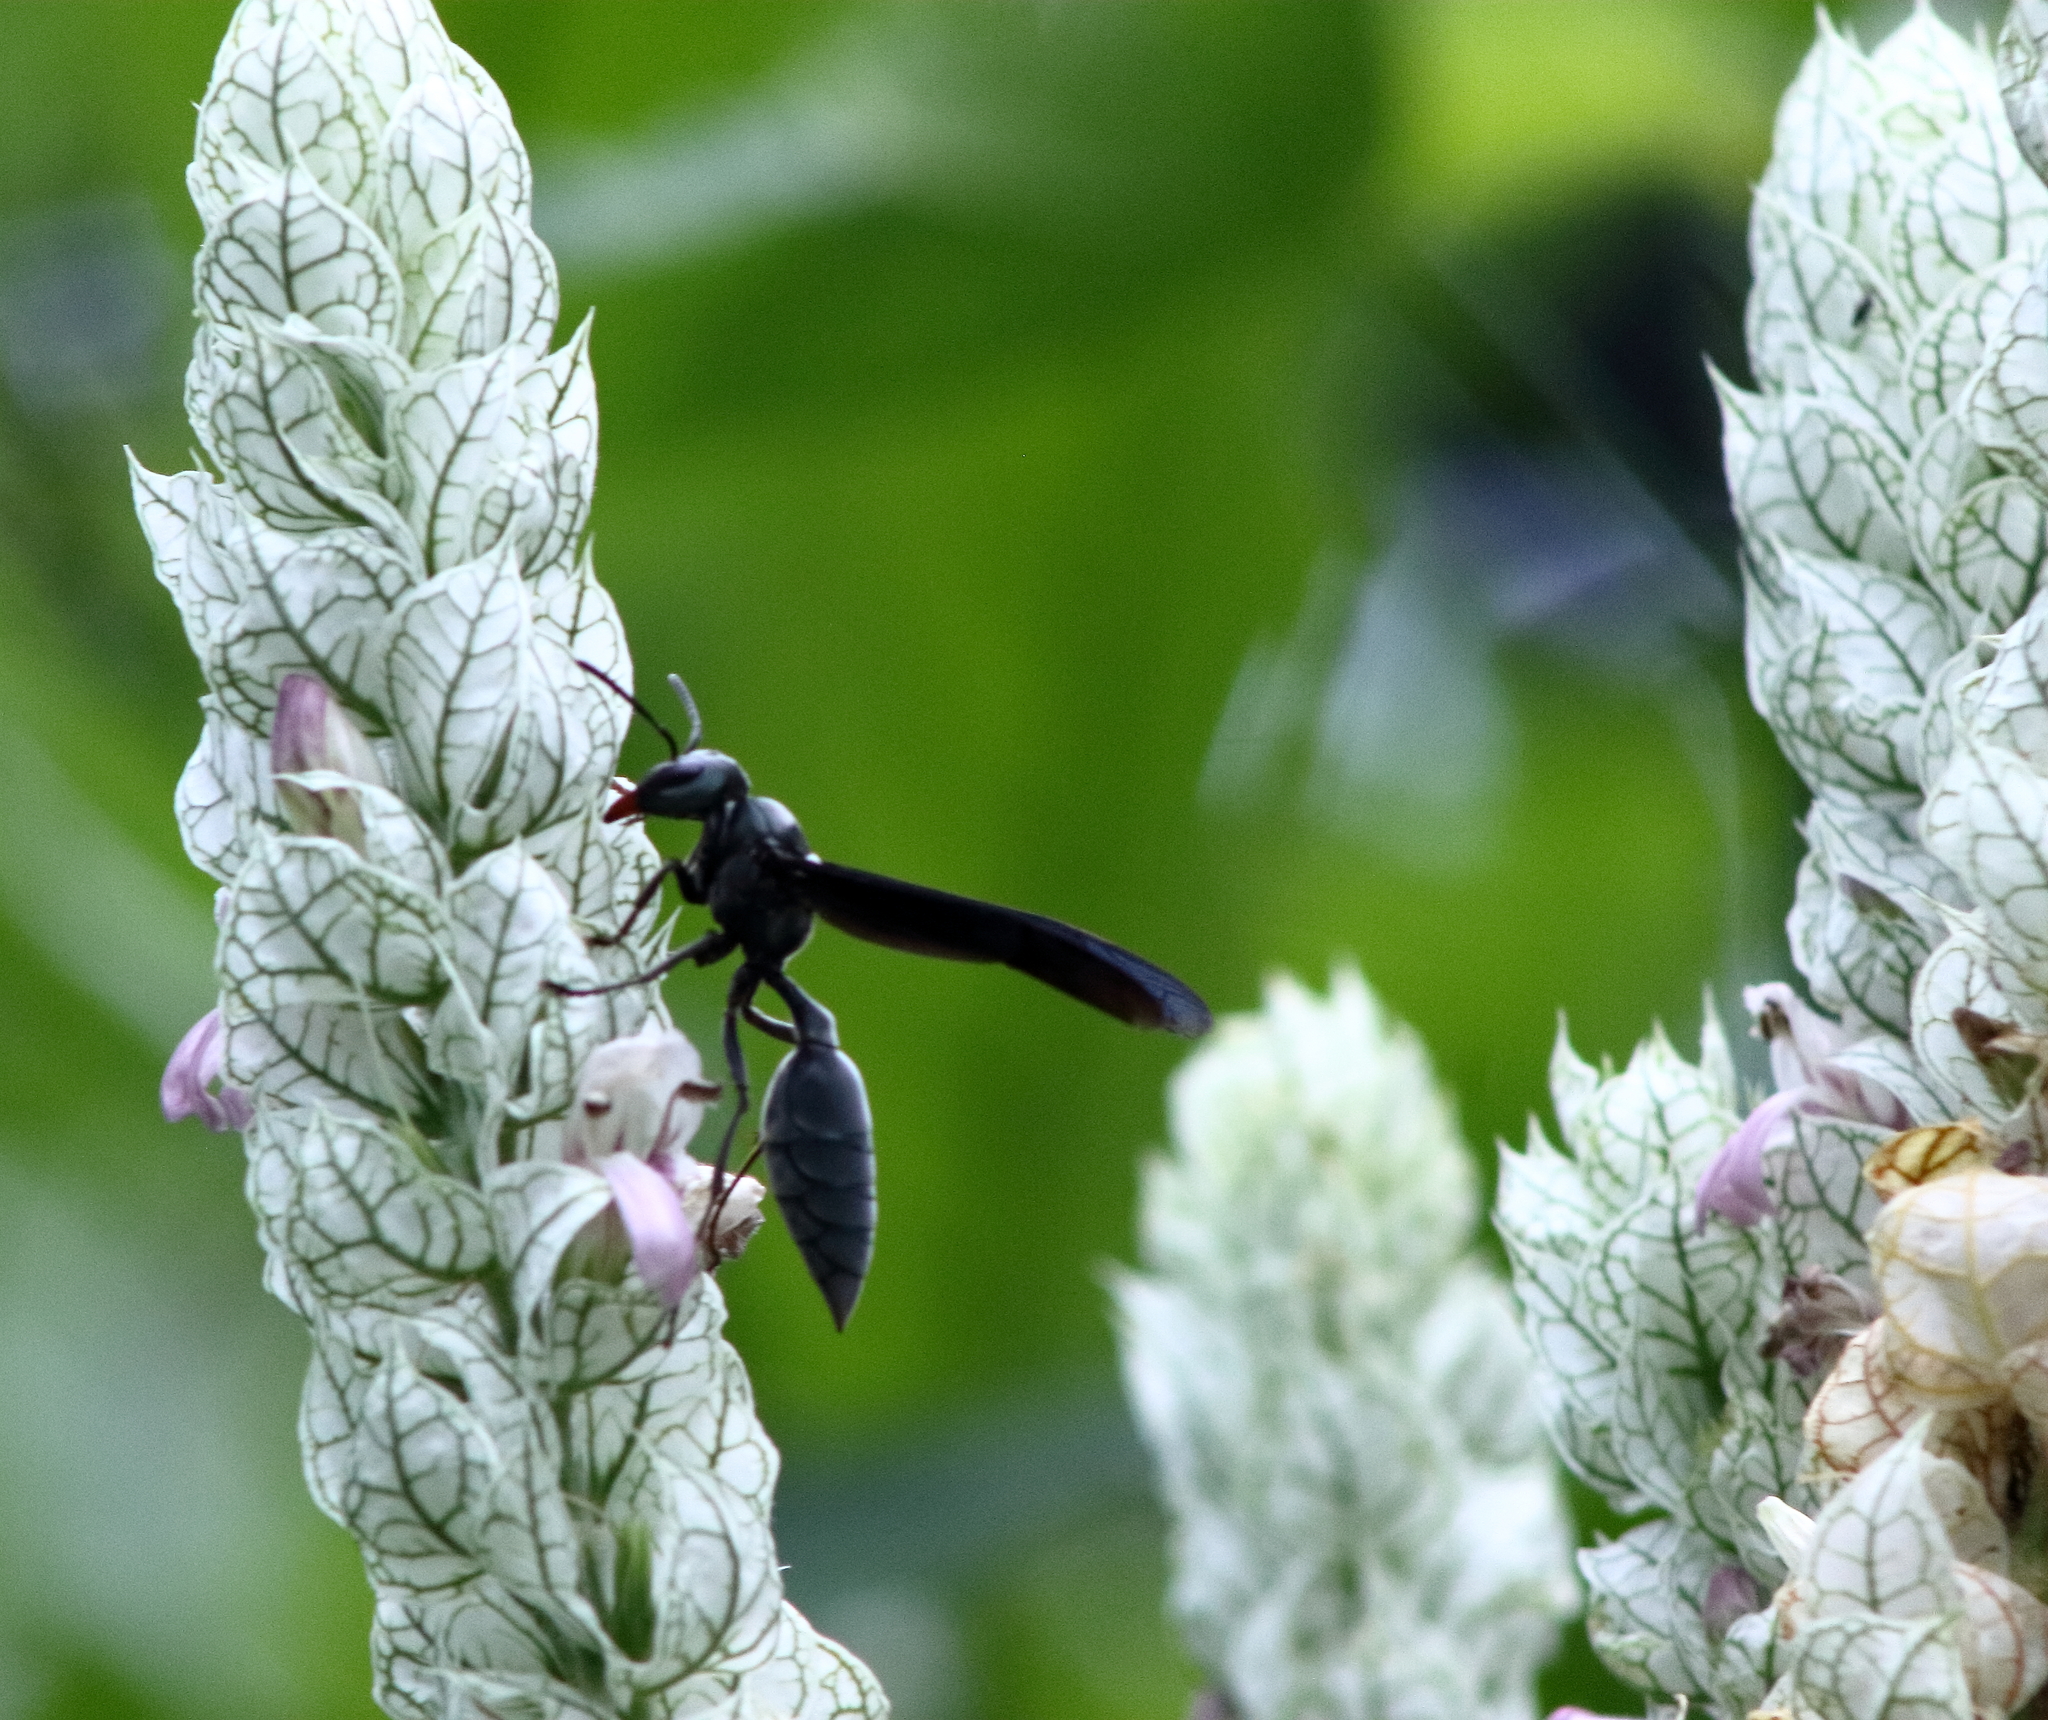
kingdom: Animalia
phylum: Arthropoda
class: Insecta
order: Hymenoptera
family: Vespidae
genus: Synoeca
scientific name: Synoeca septentrionalis
